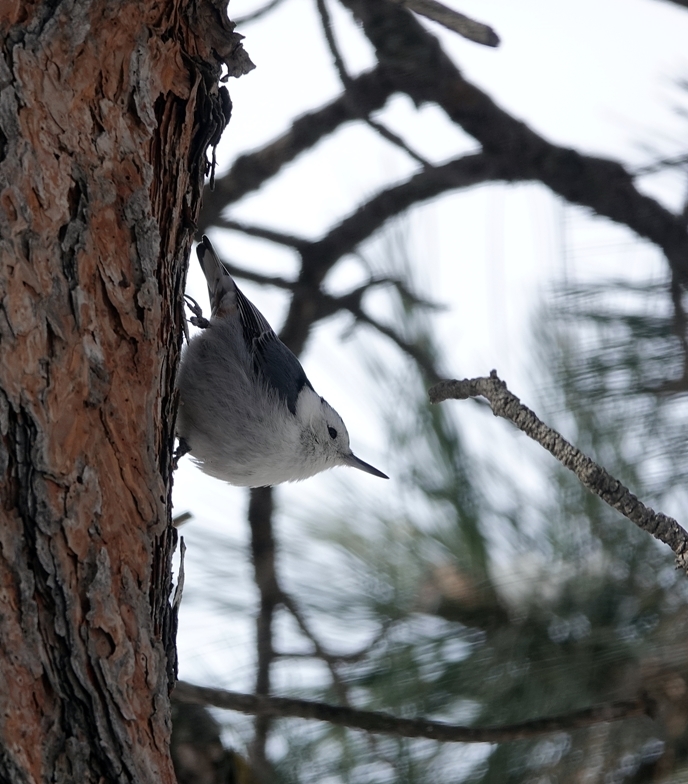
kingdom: Animalia
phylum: Chordata
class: Aves
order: Passeriformes
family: Sittidae
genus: Sitta
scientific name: Sitta carolinensis
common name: White-breasted nuthatch
